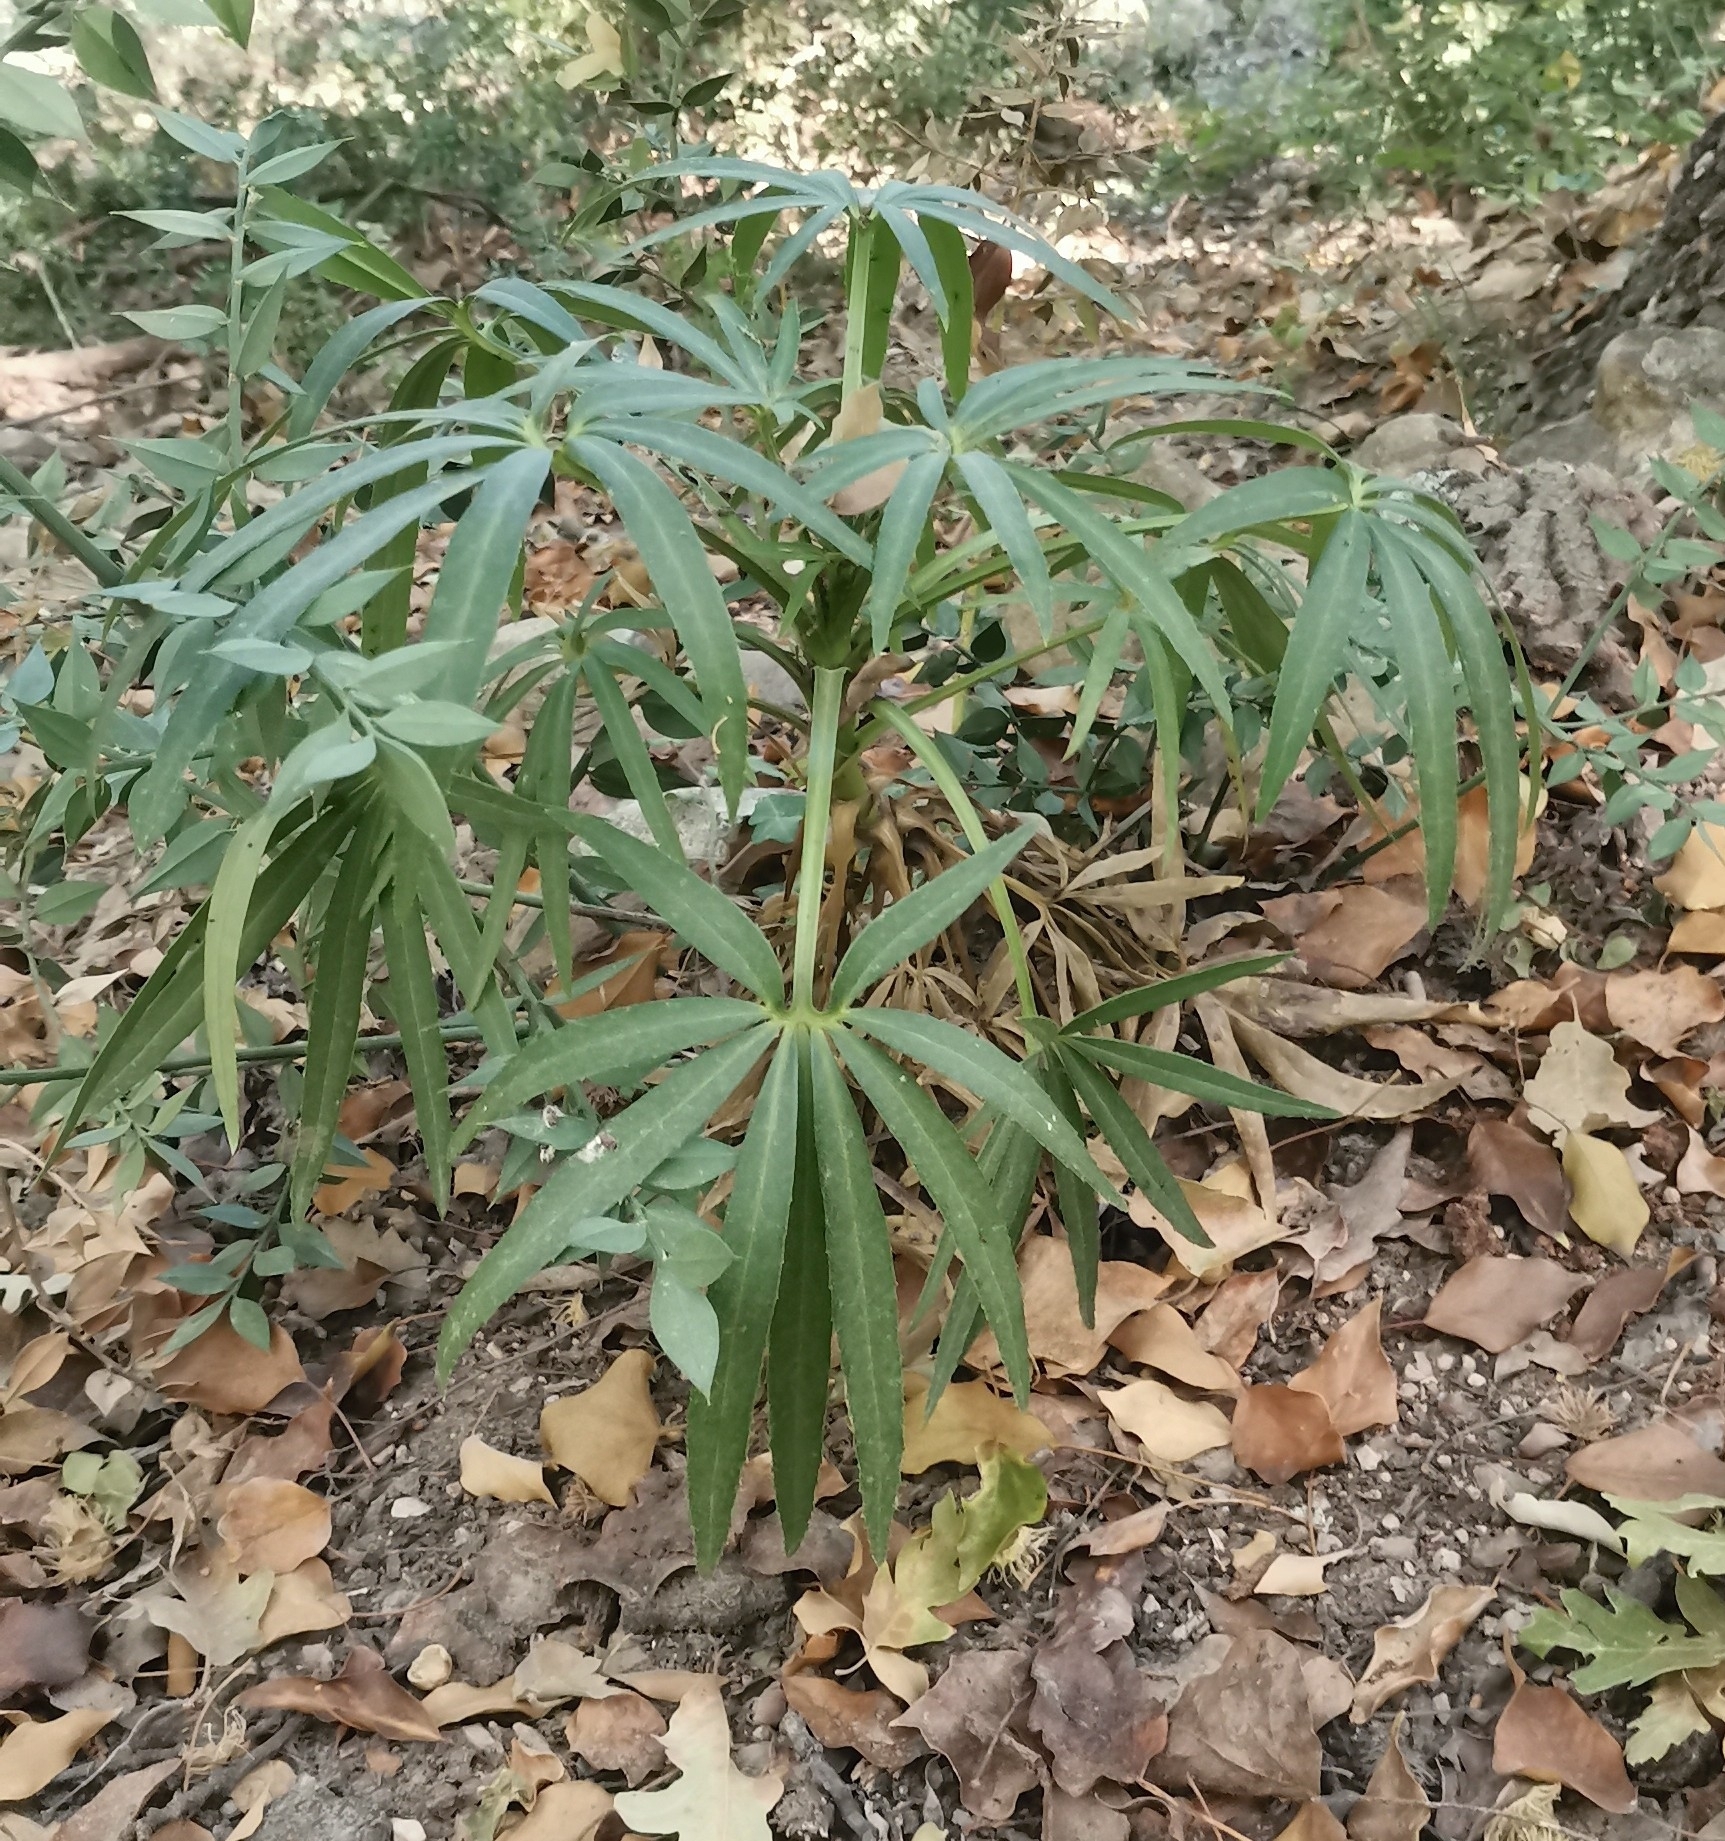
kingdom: Plantae
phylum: Tracheophyta
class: Magnoliopsida
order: Ranunculales
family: Ranunculaceae
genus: Helleborus
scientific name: Helleborus foetidus
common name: Stinking hellebore
